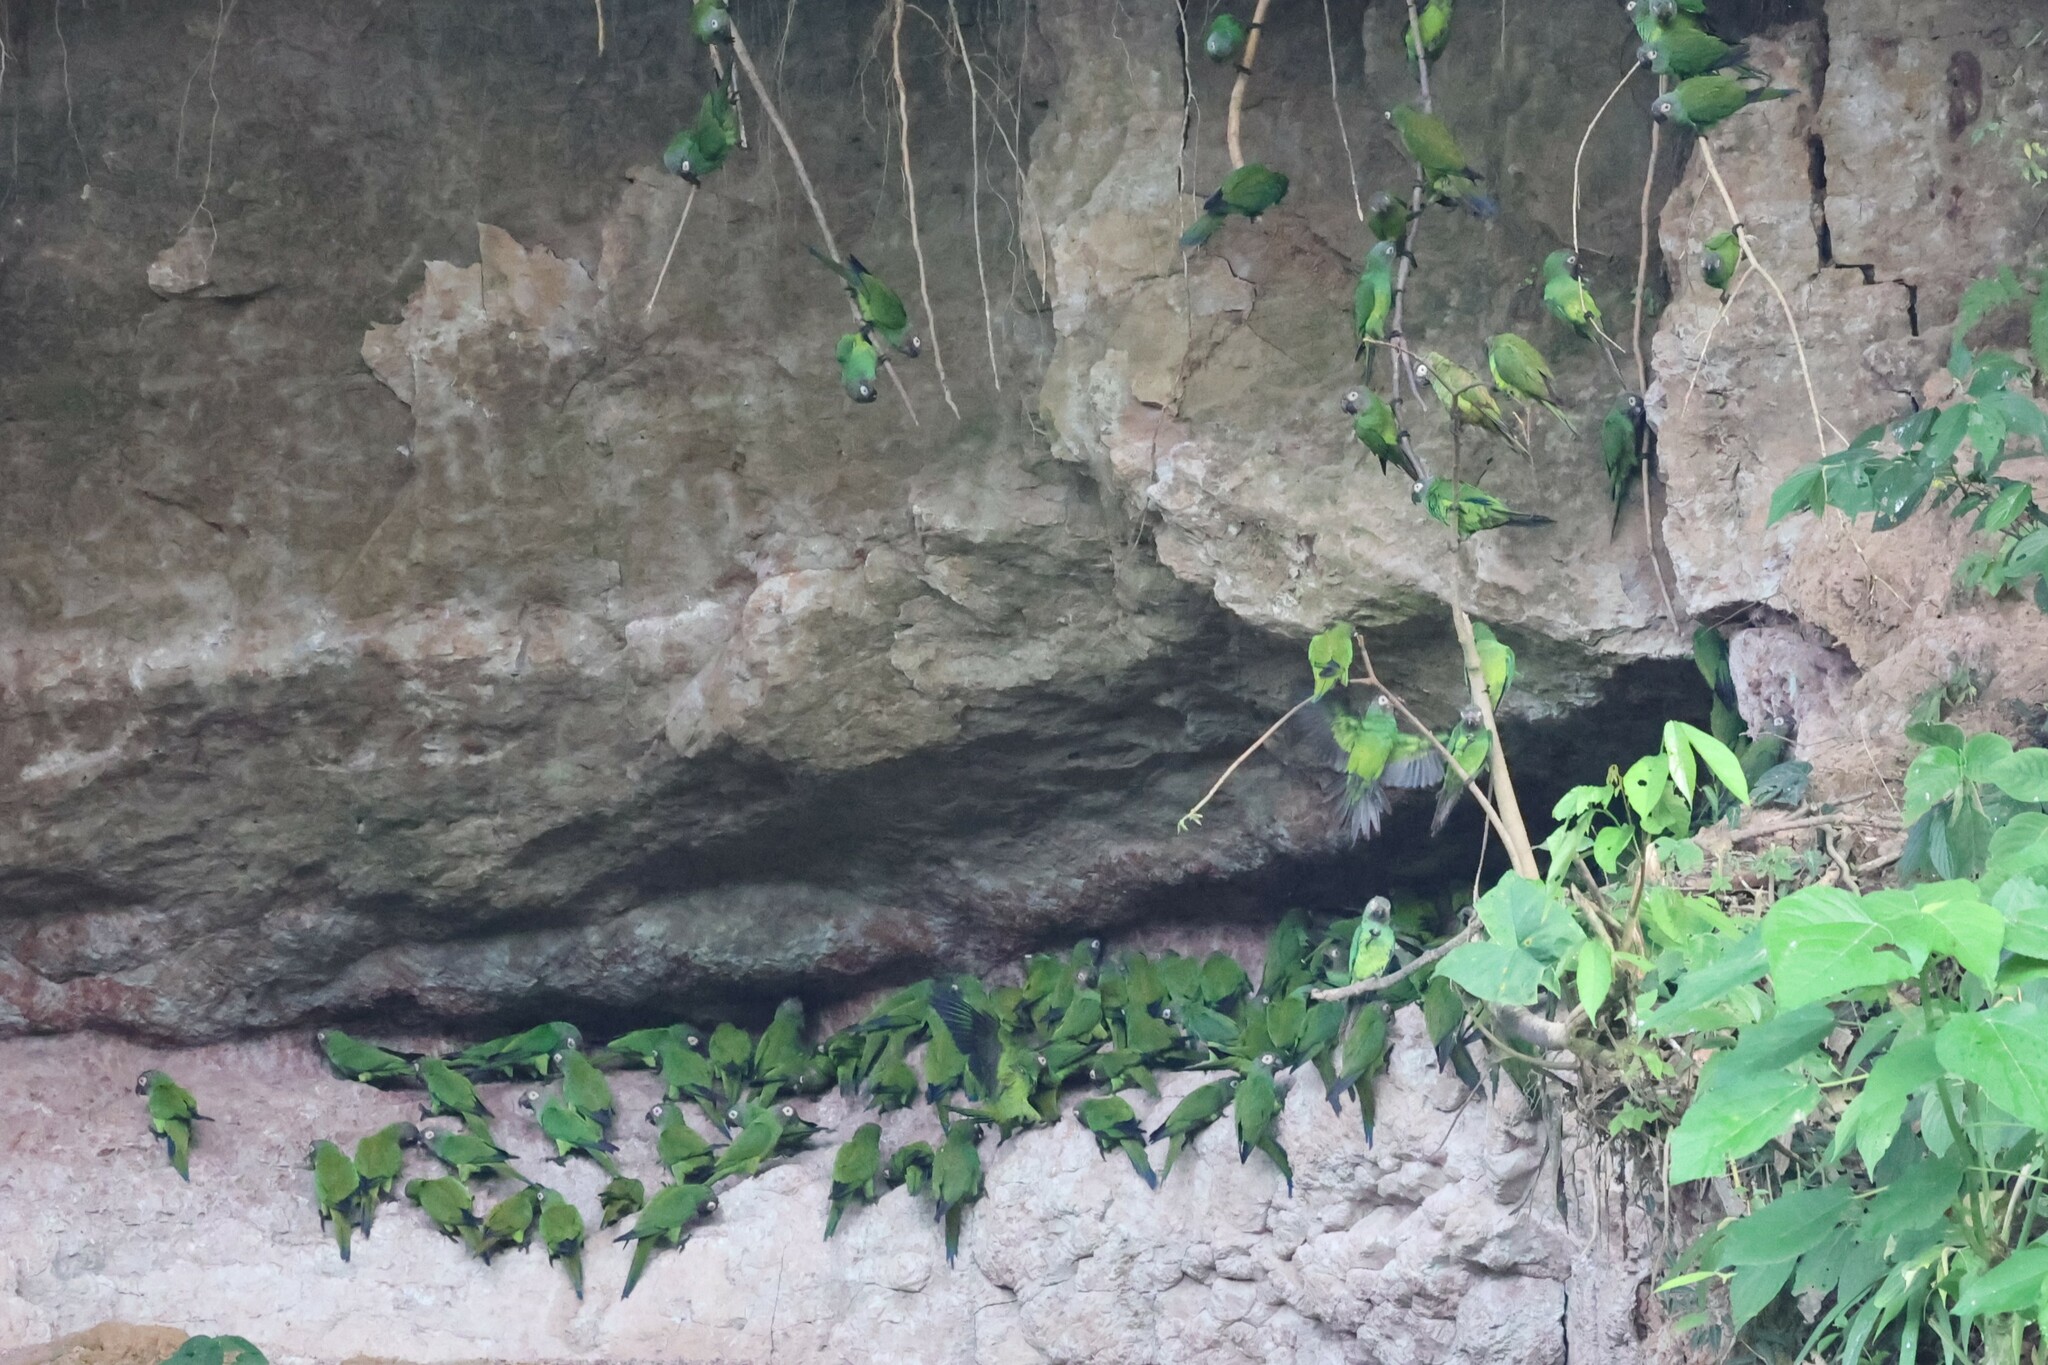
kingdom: Animalia
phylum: Chordata
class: Aves
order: Psittaciformes
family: Psittacidae
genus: Aratinga
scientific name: Aratinga weddellii
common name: Dusky-headed parakeet
